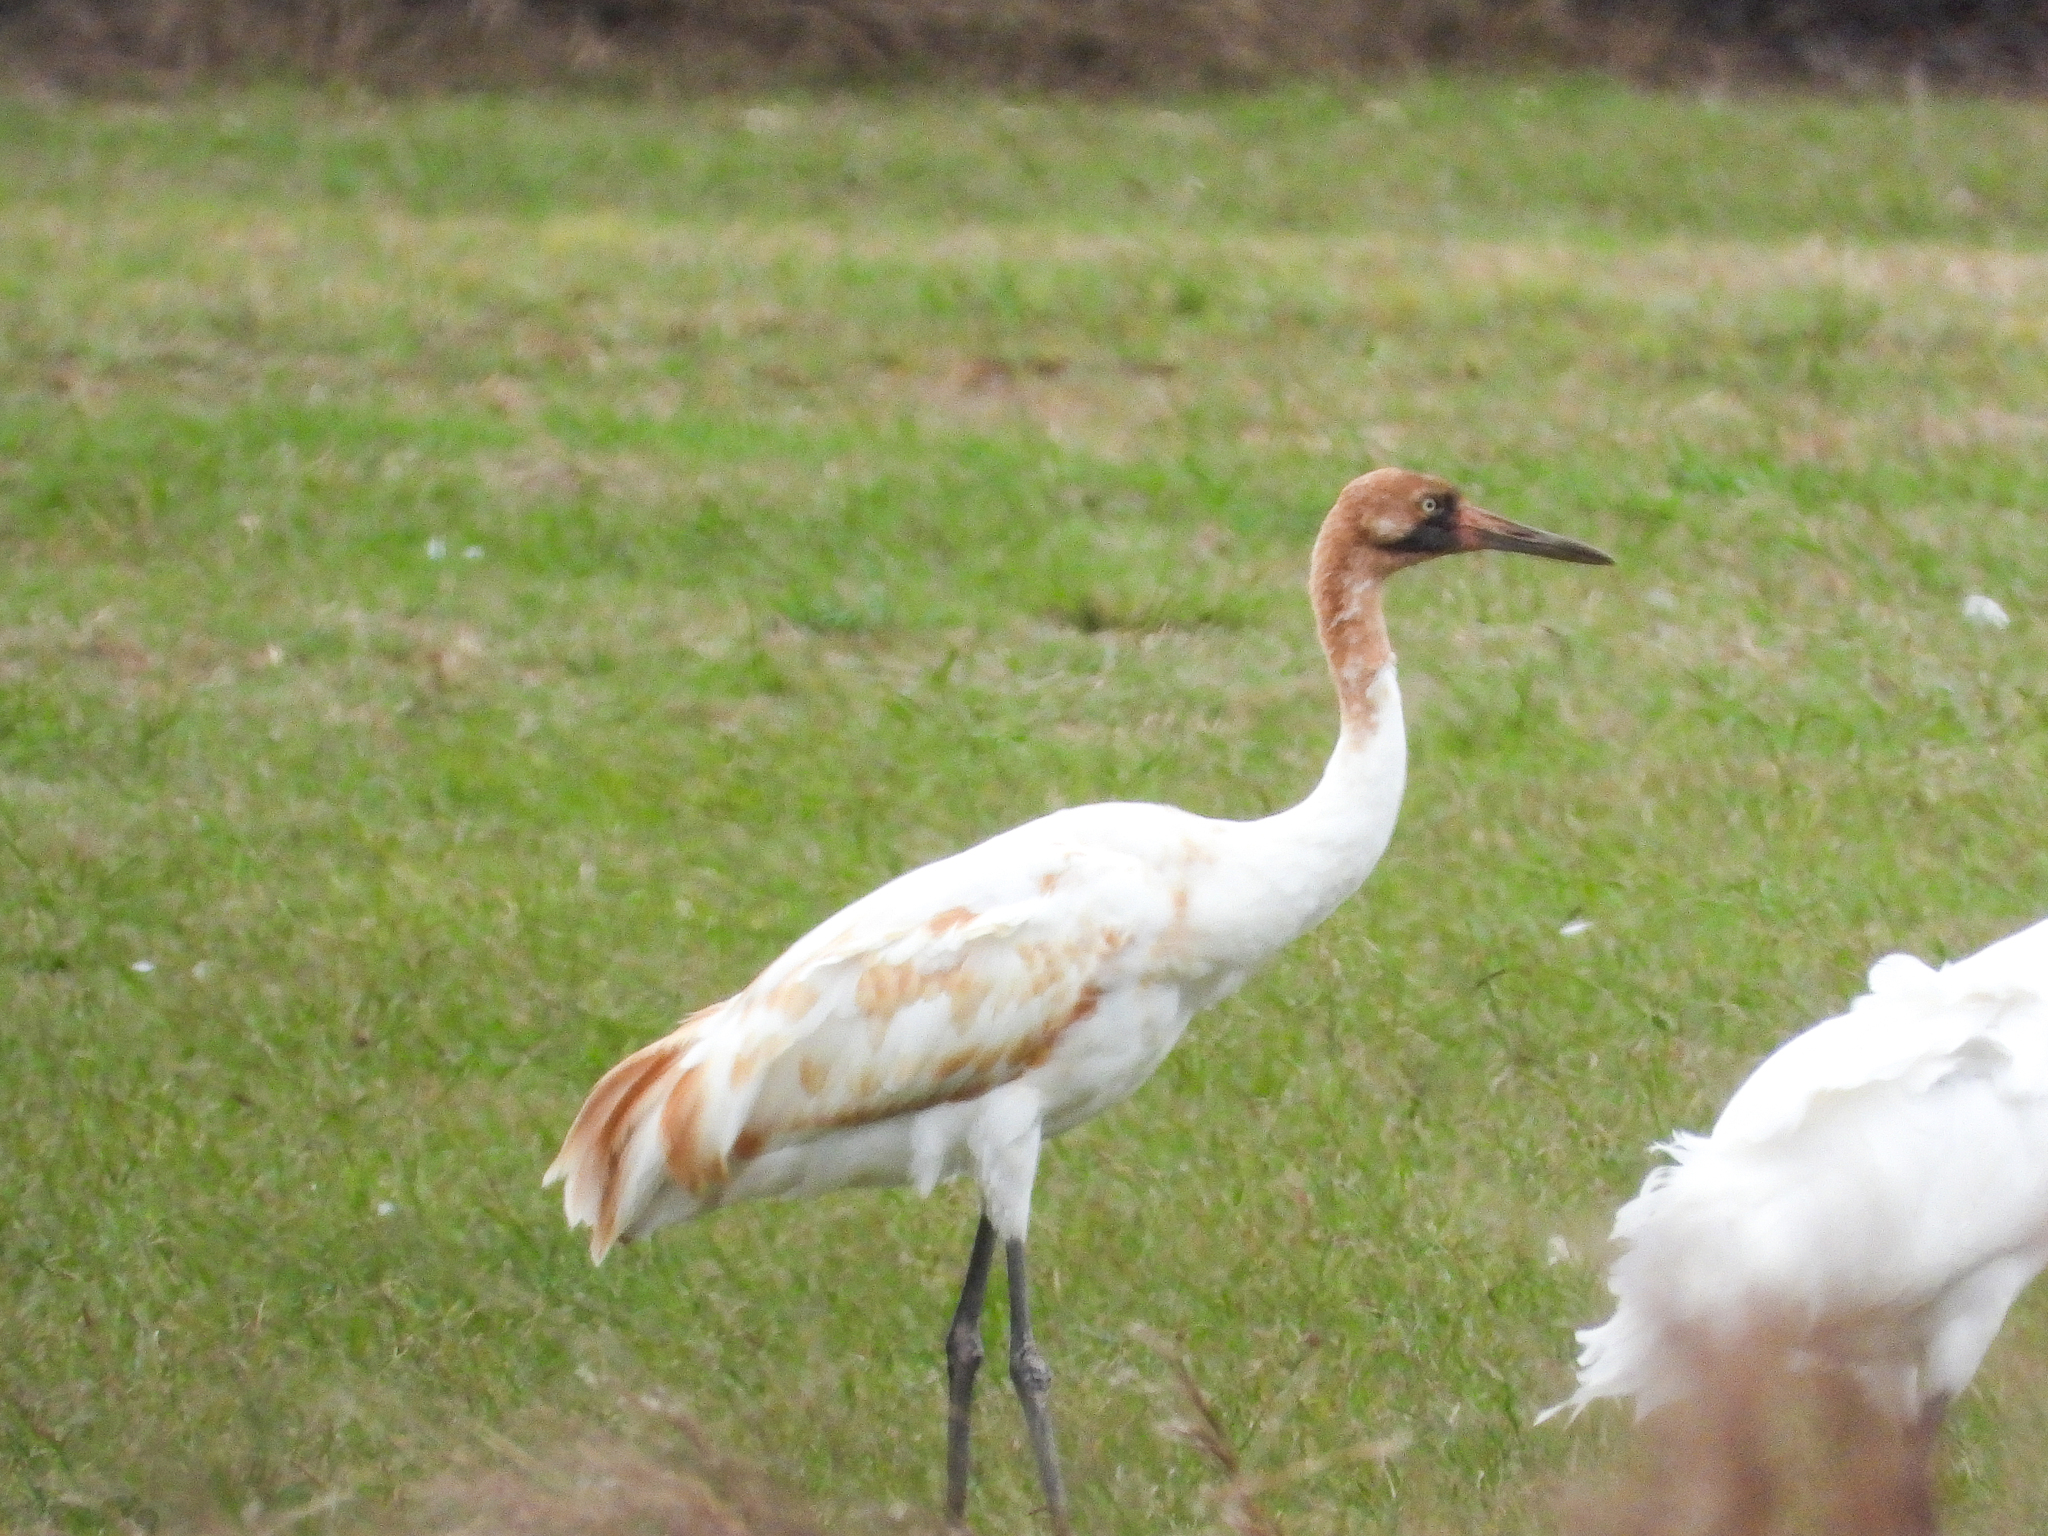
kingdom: Animalia
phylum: Chordata
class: Aves
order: Gruiformes
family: Gruidae
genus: Grus
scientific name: Grus americana
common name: Whooping crane
